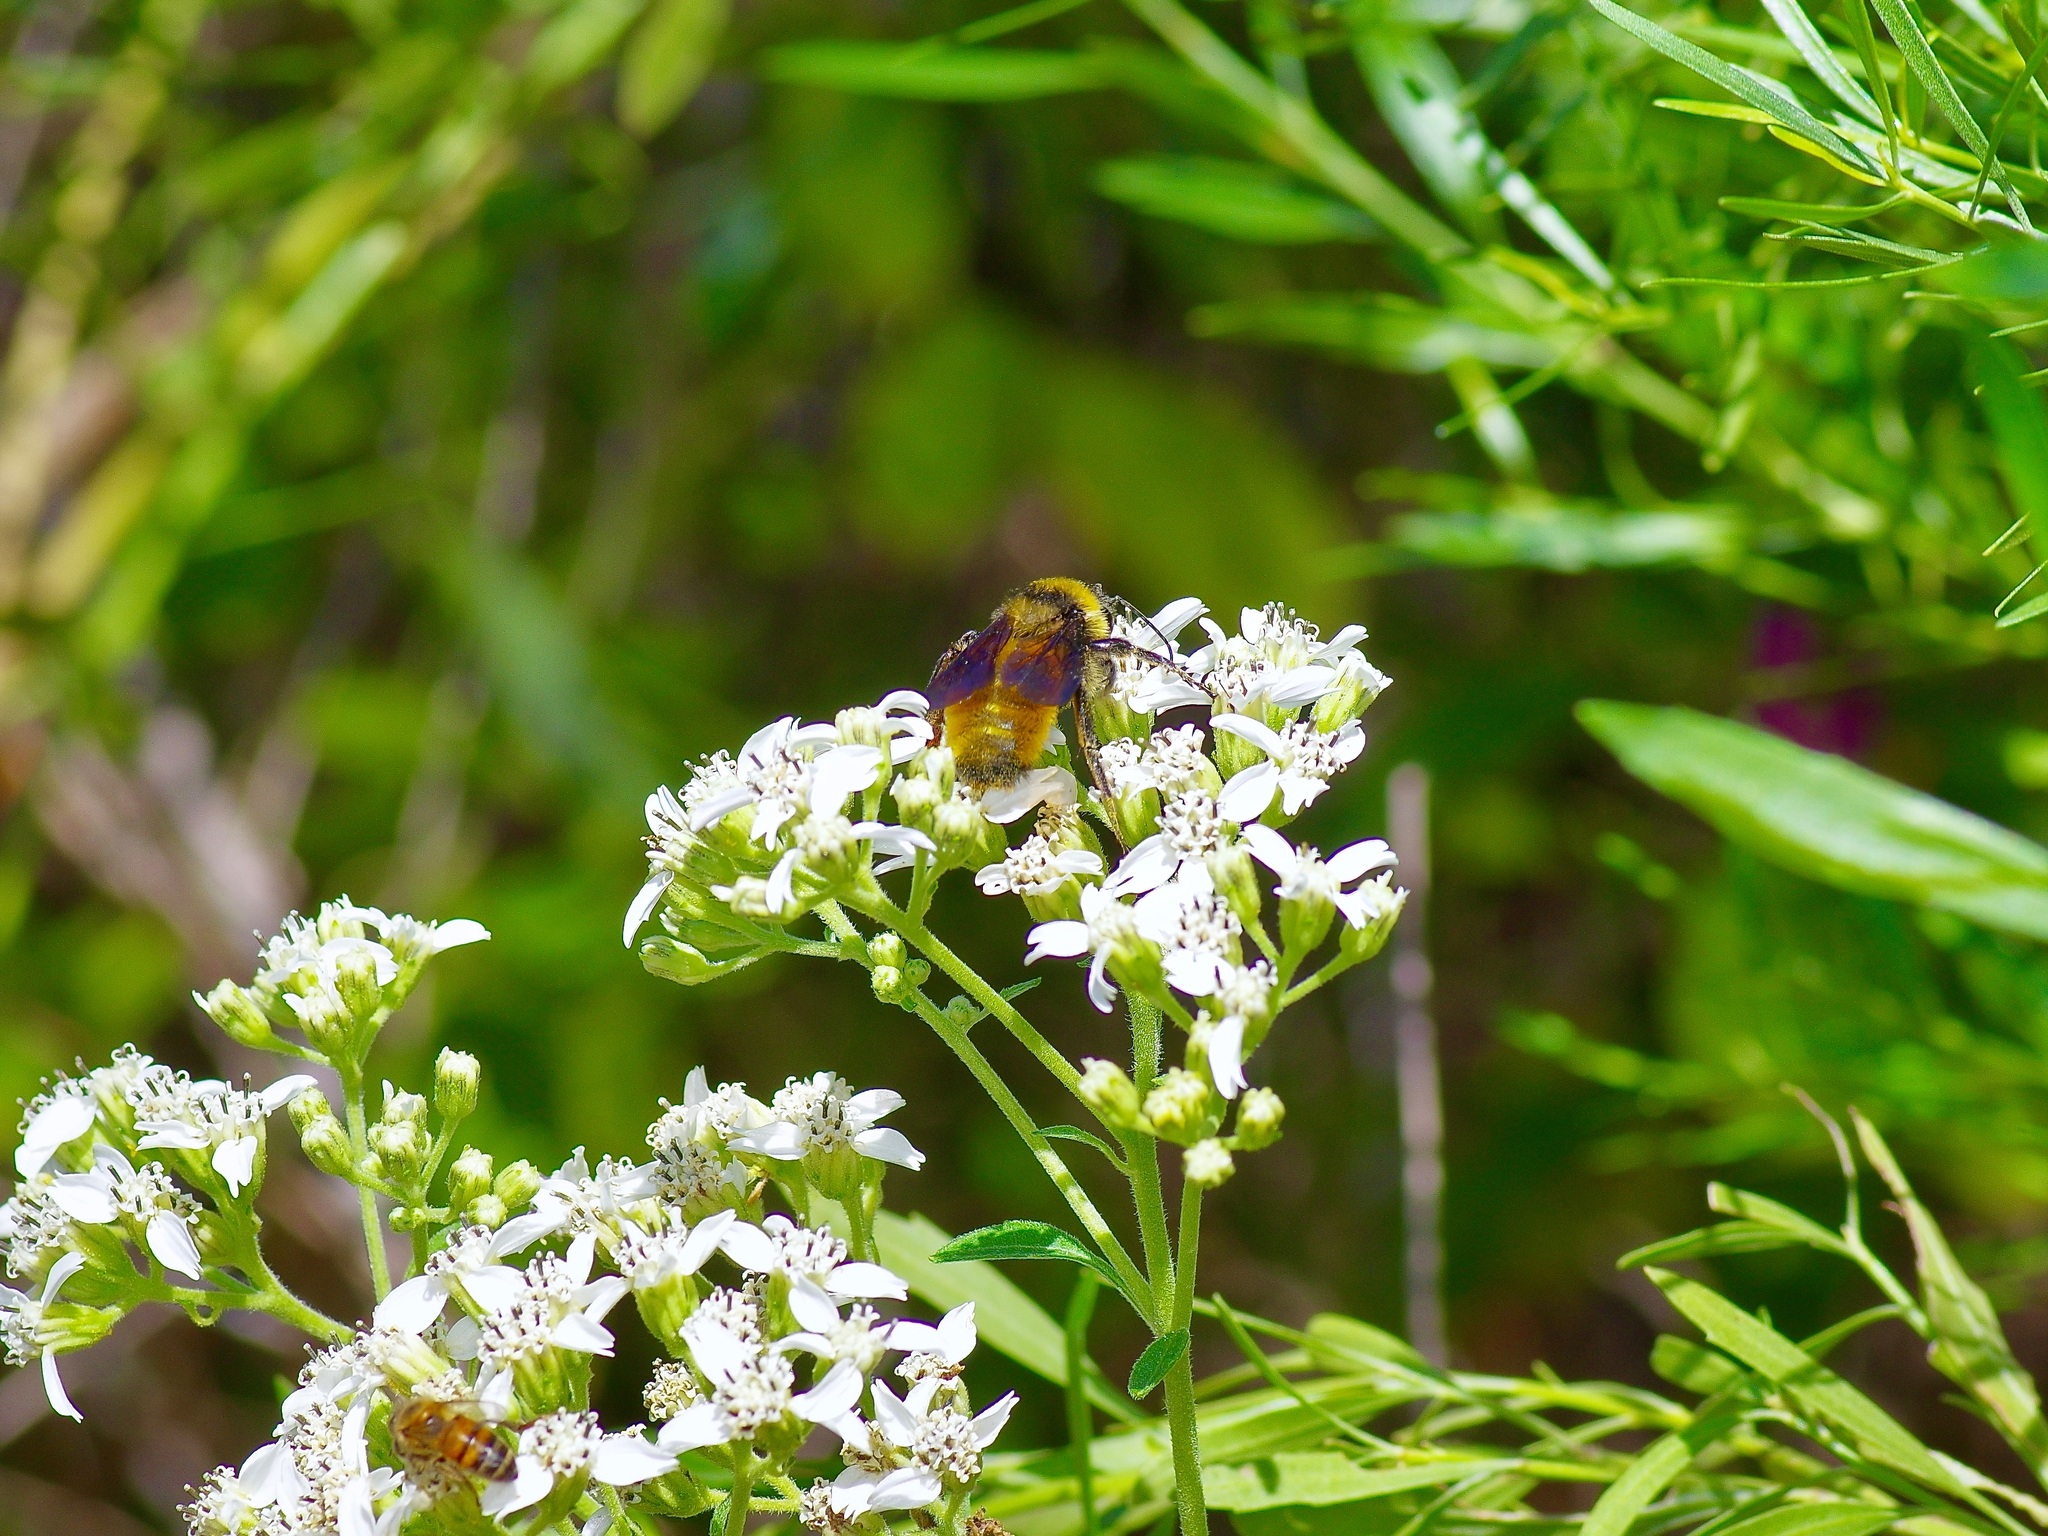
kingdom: Animalia
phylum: Arthropoda
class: Insecta
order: Hymenoptera
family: Apidae
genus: Bombus
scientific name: Bombus pensylvanicus
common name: Bumble bee
